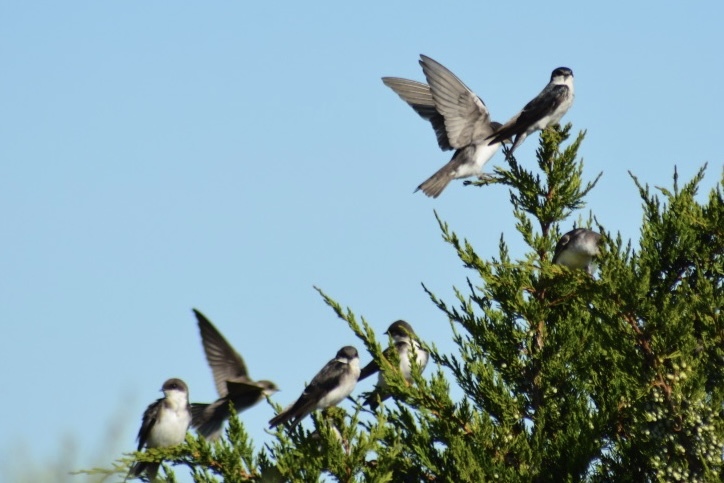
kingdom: Animalia
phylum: Chordata
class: Aves
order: Passeriformes
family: Hirundinidae
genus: Tachycineta
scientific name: Tachycineta bicolor
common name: Tree swallow
